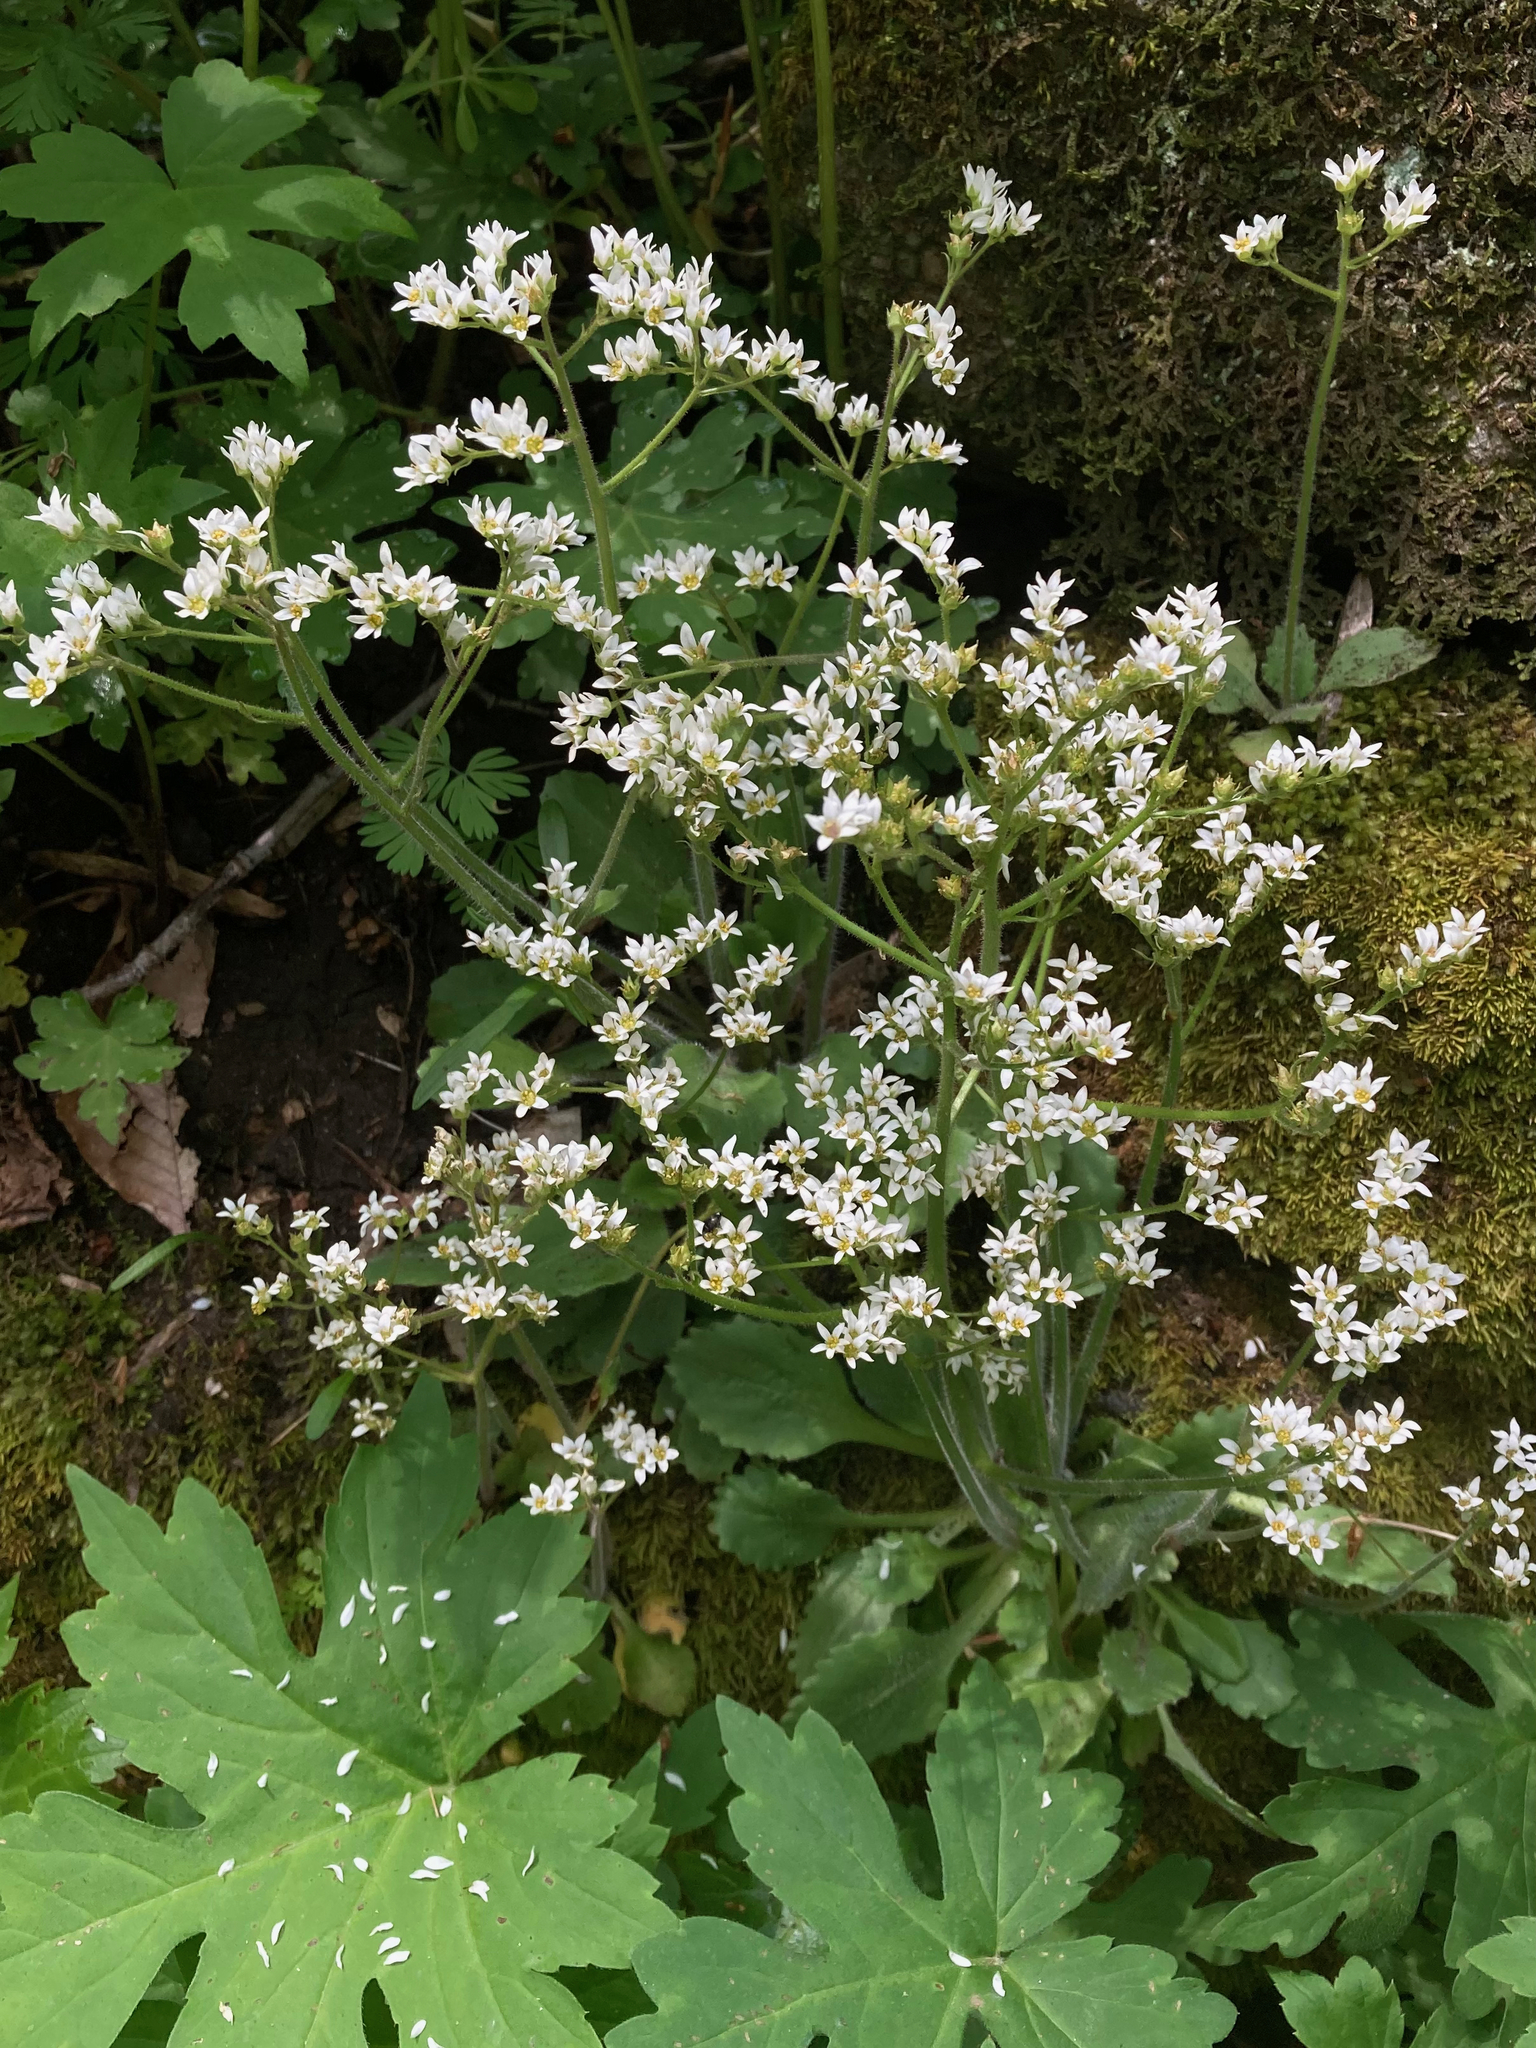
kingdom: Plantae
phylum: Tracheophyta
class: Magnoliopsida
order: Saxifragales
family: Saxifragaceae
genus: Micranthes
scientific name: Micranthes virginiensis
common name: Early saxifrage
